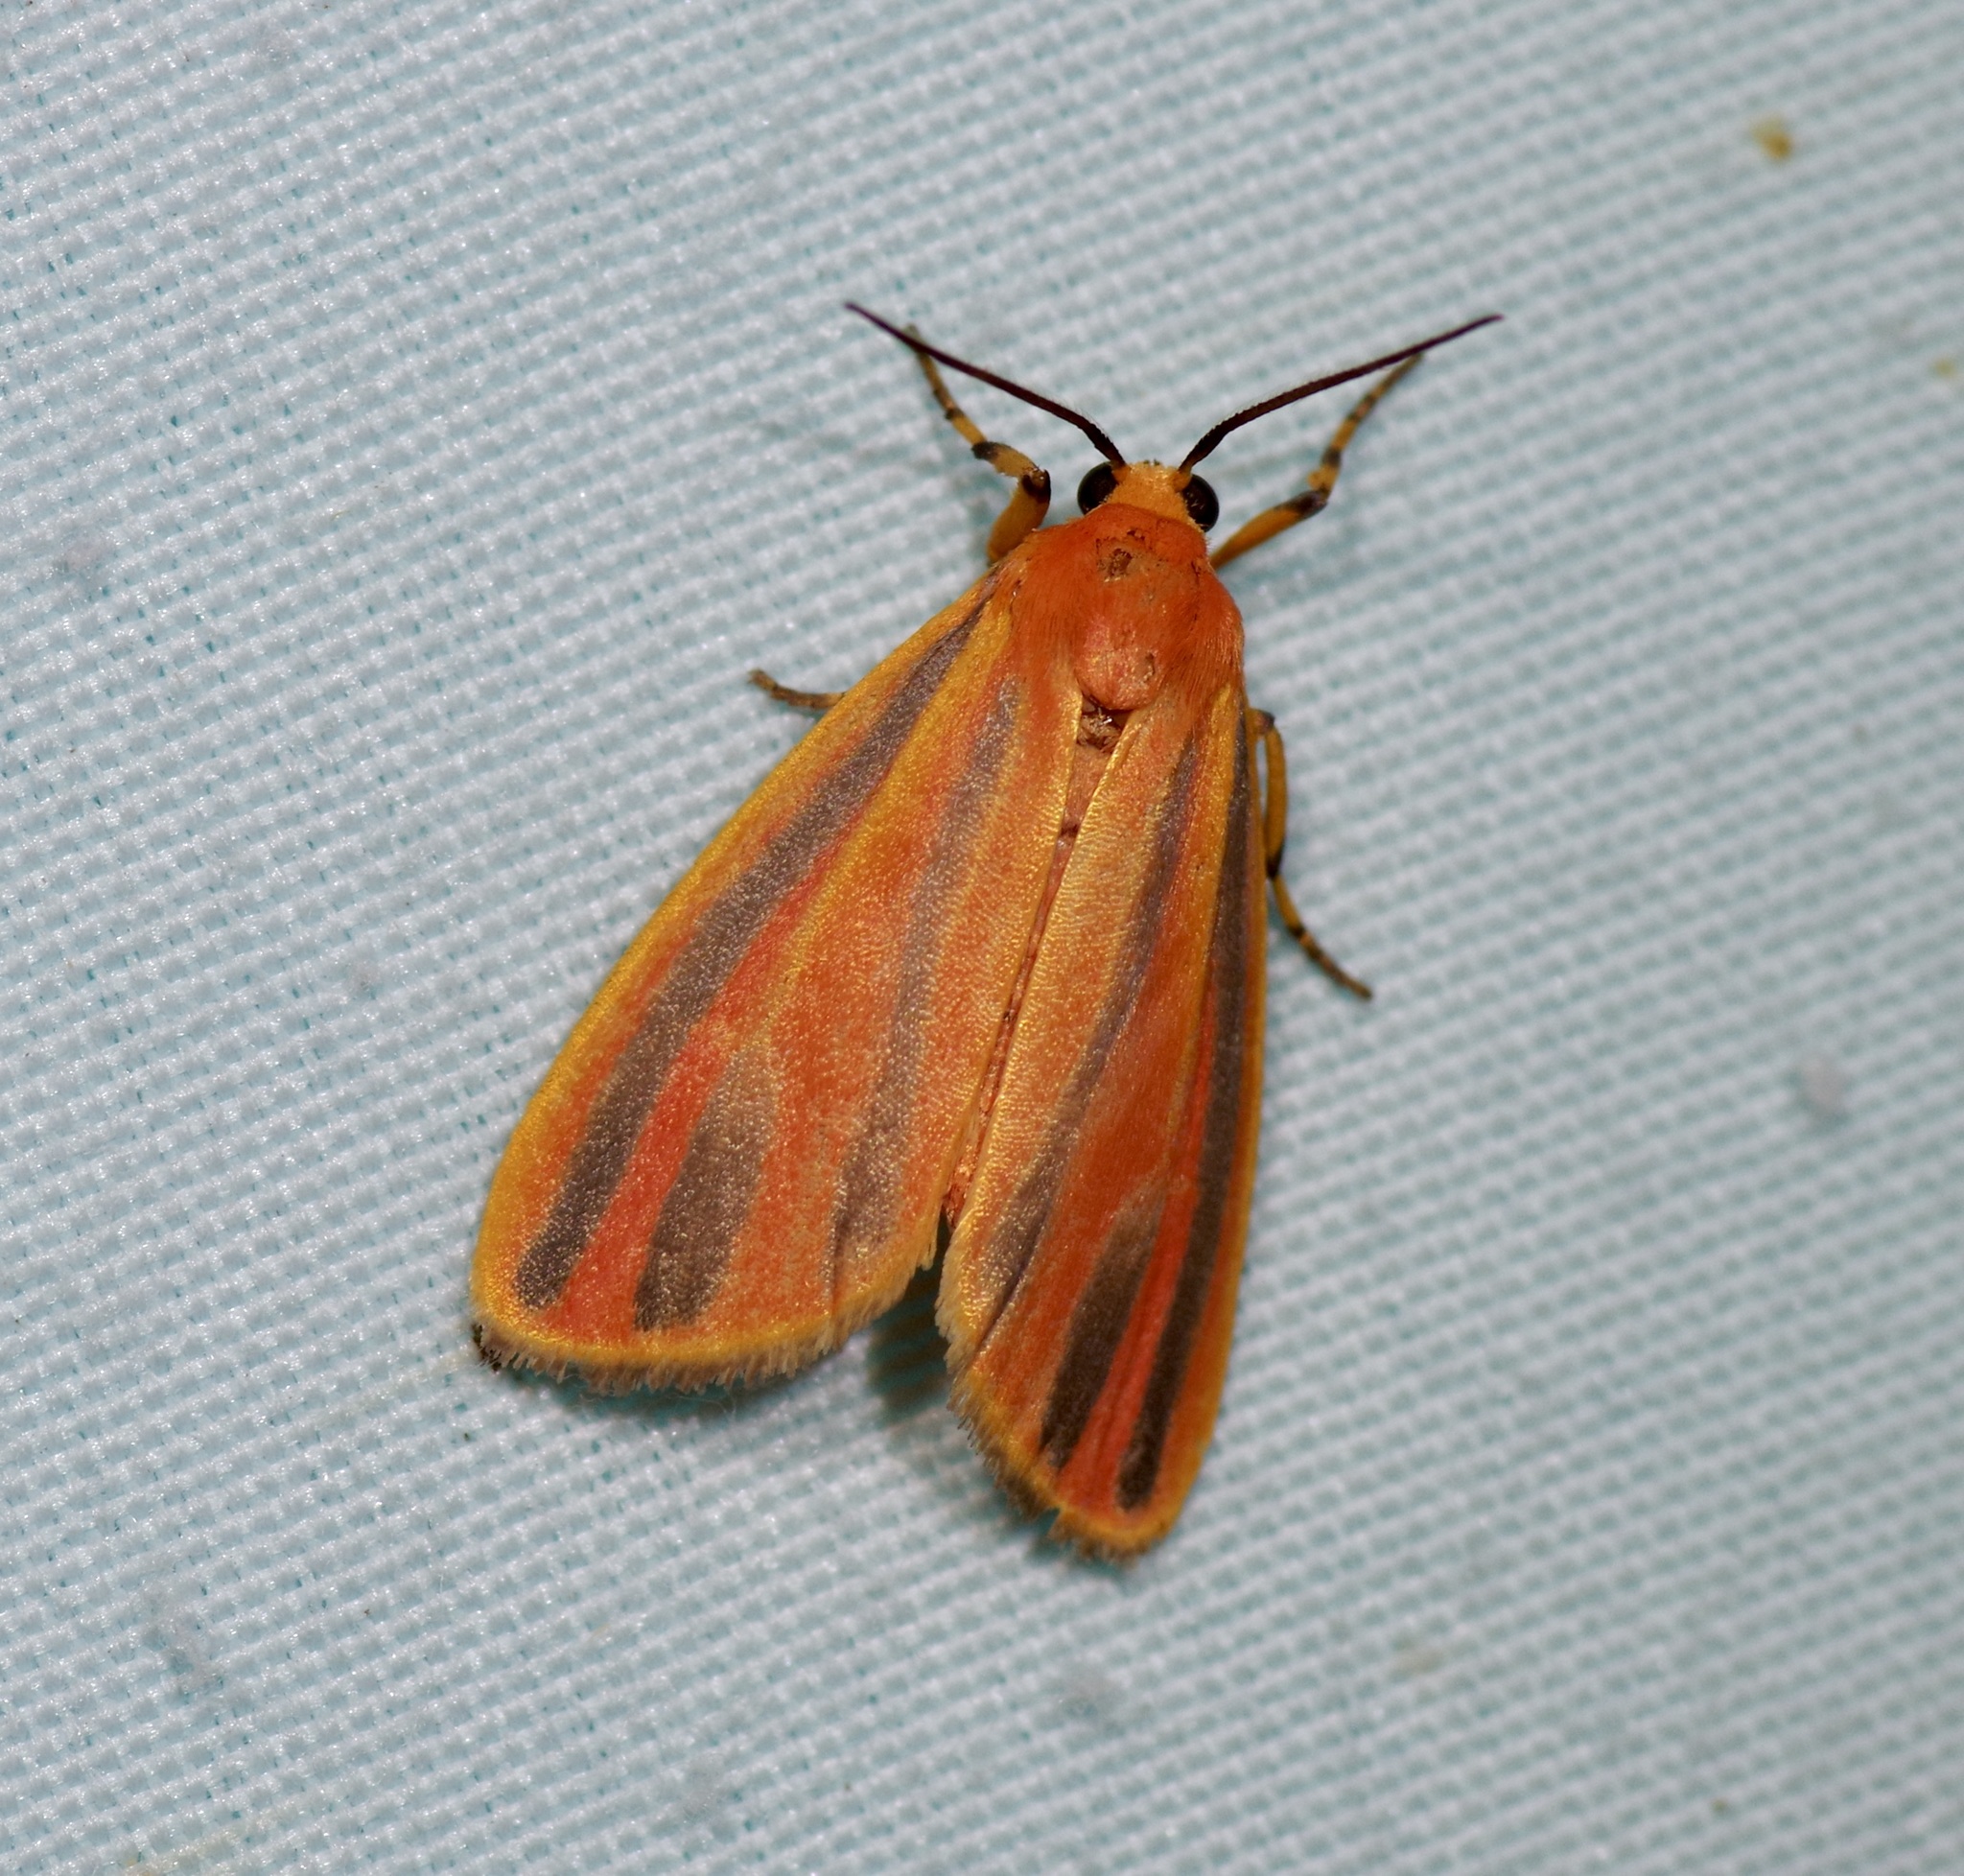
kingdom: Animalia
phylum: Arthropoda
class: Insecta
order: Lepidoptera
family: Erebidae
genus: Hypoprepia
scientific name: Hypoprepia miniata
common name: Scarlet-winged lichen moth
